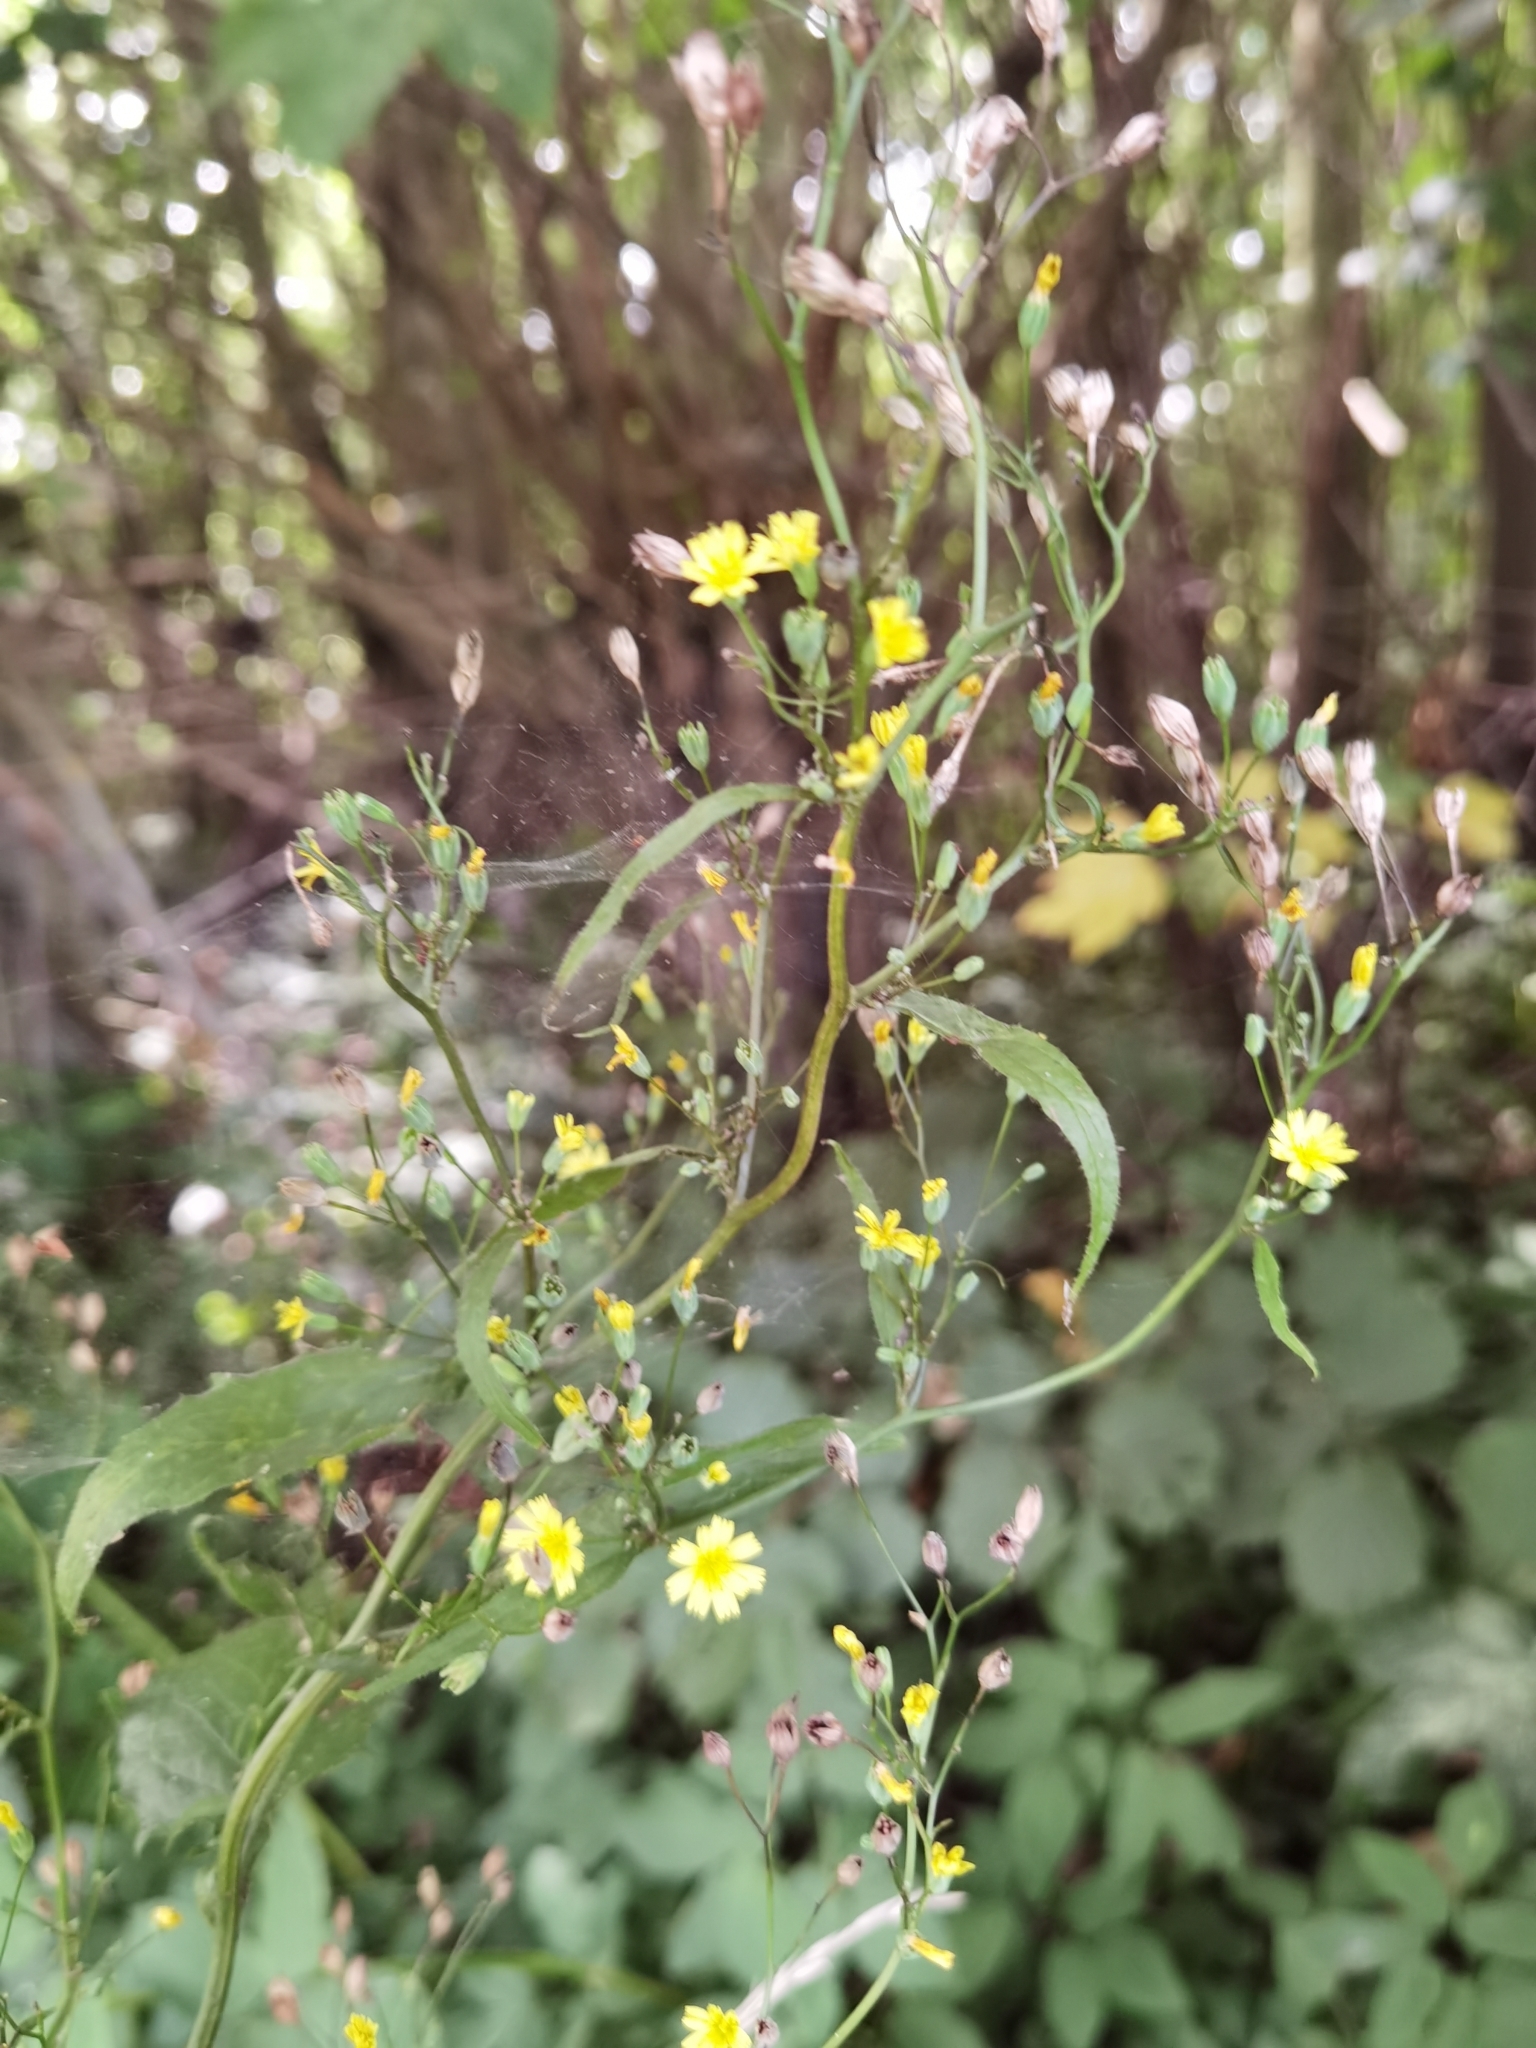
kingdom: Plantae
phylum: Tracheophyta
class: Magnoliopsida
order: Asterales
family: Asteraceae
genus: Lapsana
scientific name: Lapsana communis
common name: Nipplewort
